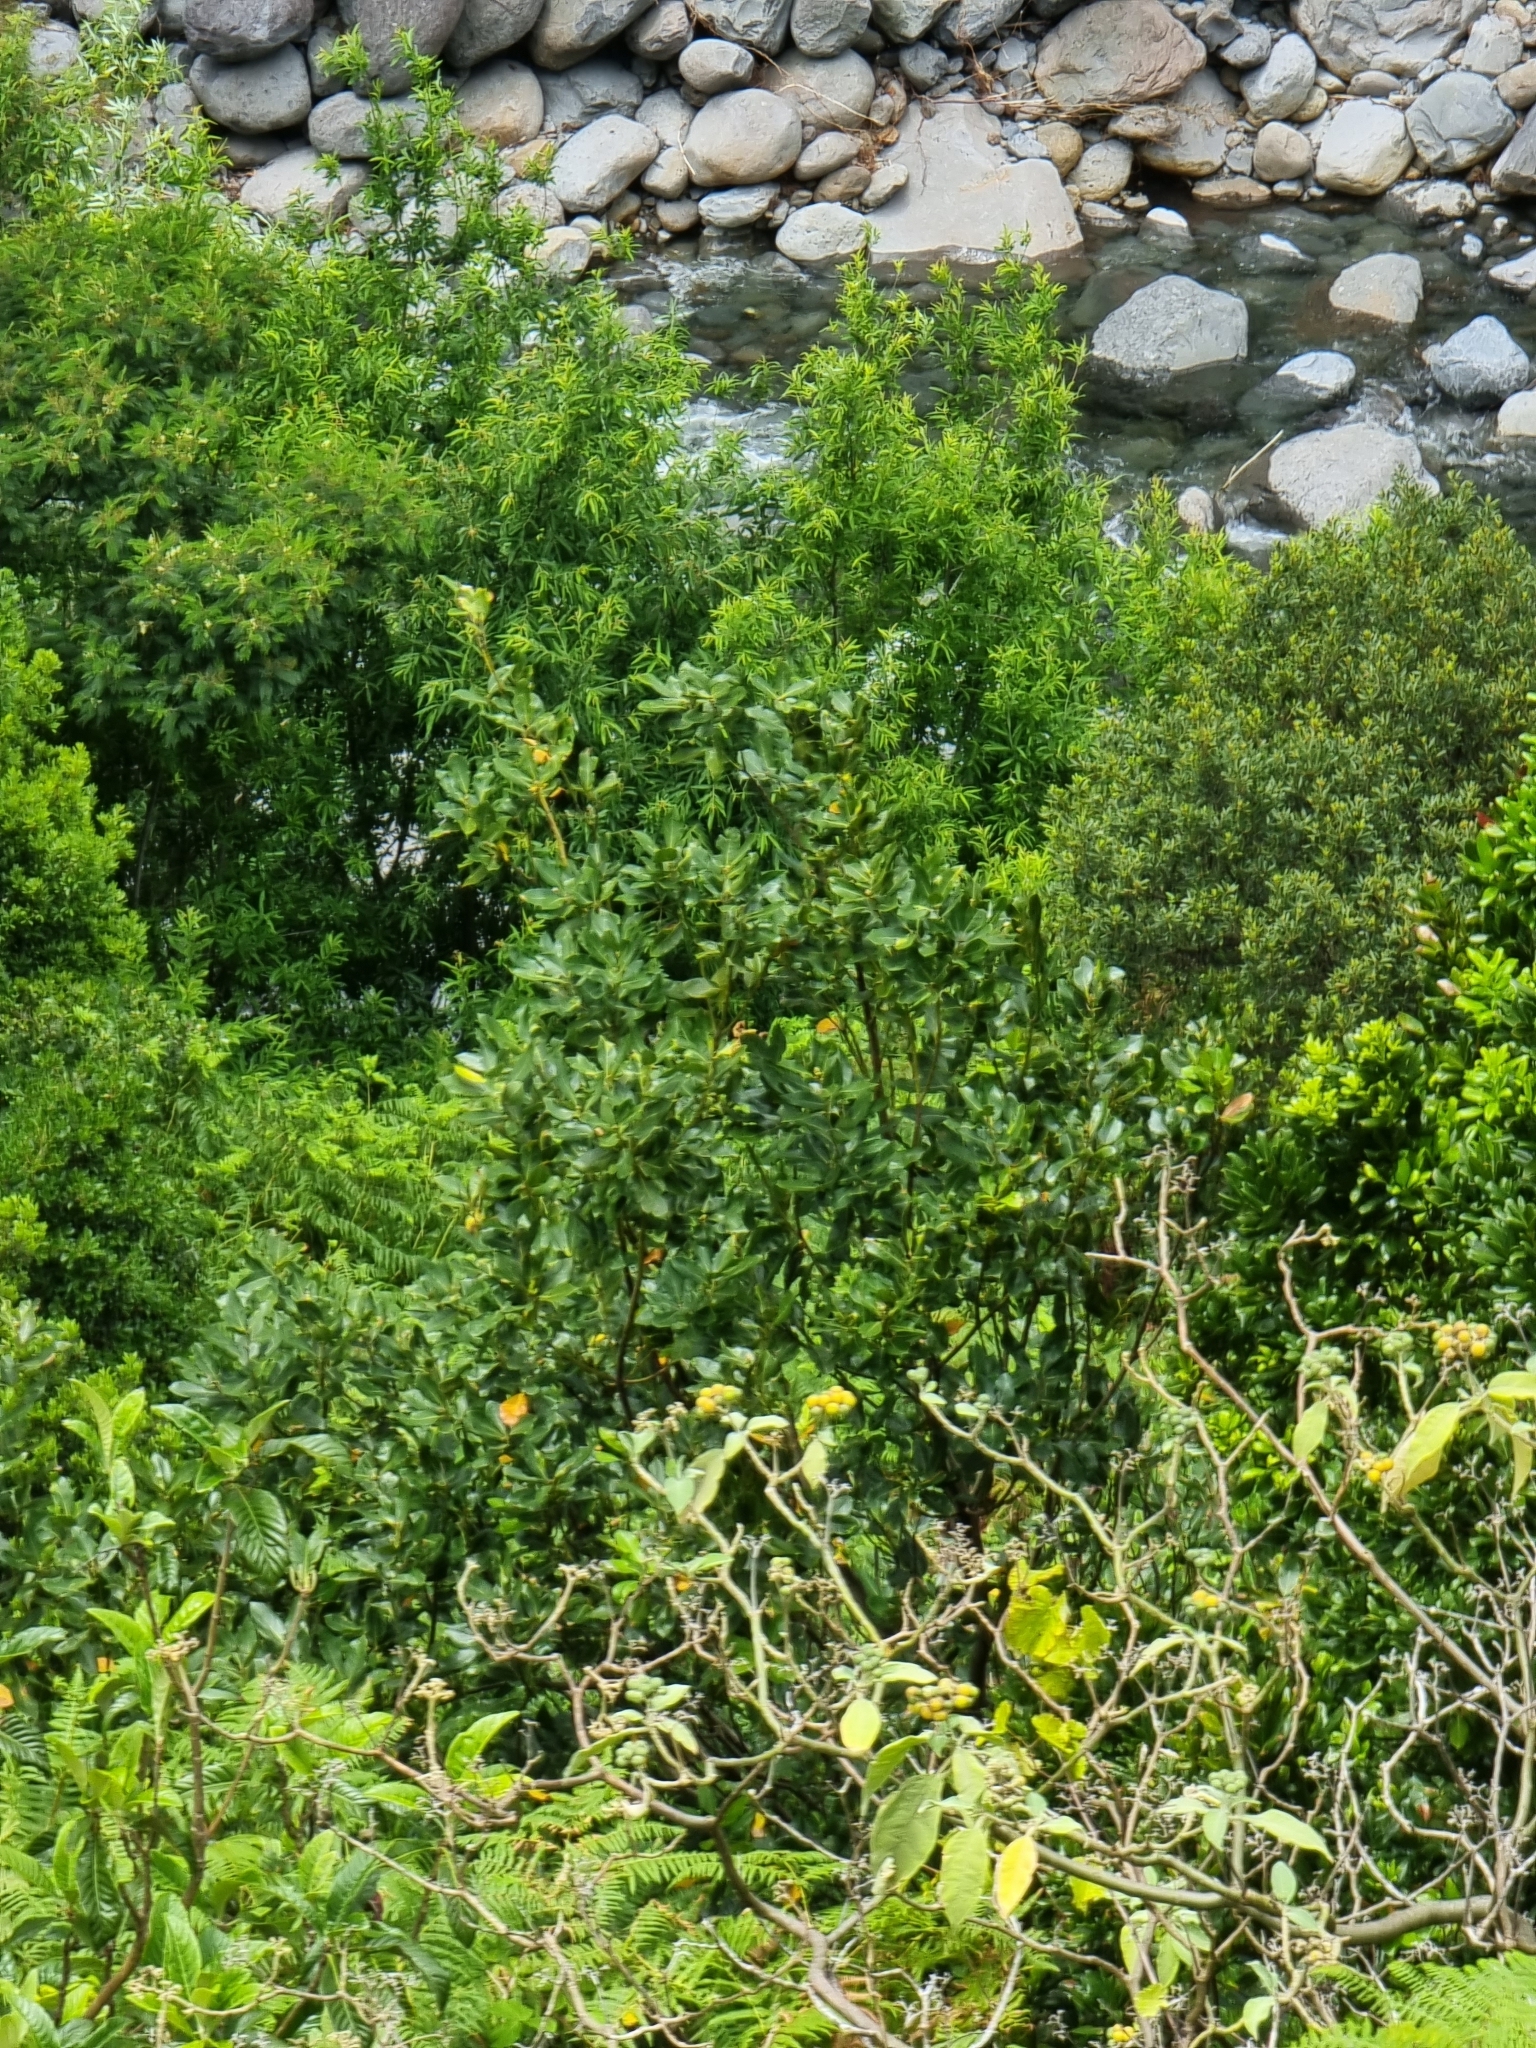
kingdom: Plantae
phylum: Tracheophyta
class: Magnoliopsida
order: Laurales
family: Lauraceae
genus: Laurus
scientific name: Laurus novocanariensis
